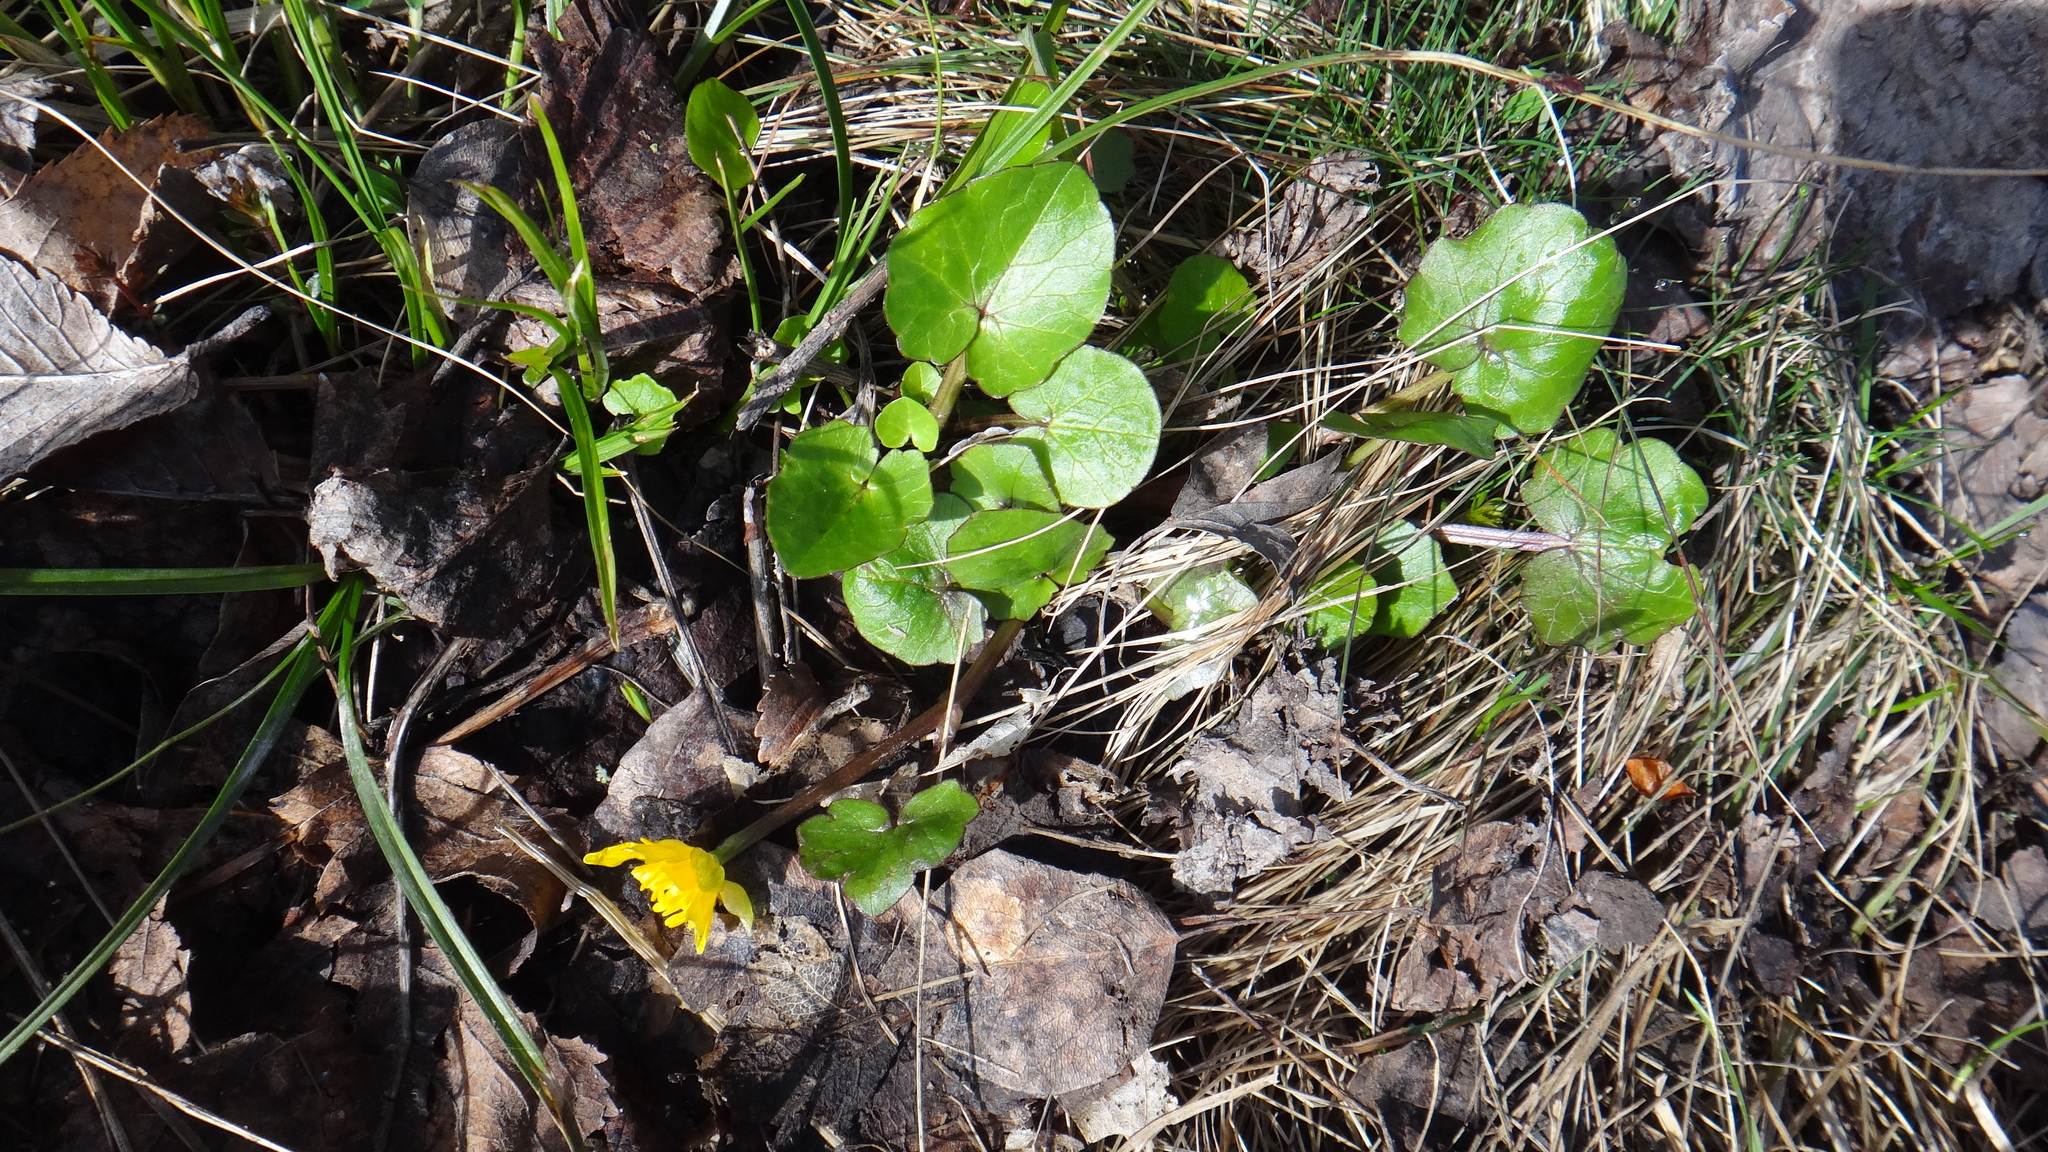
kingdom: Plantae
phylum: Tracheophyta
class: Magnoliopsida
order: Ranunculales
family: Ranunculaceae
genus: Ficaria
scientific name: Ficaria verna
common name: Lesser celandine
